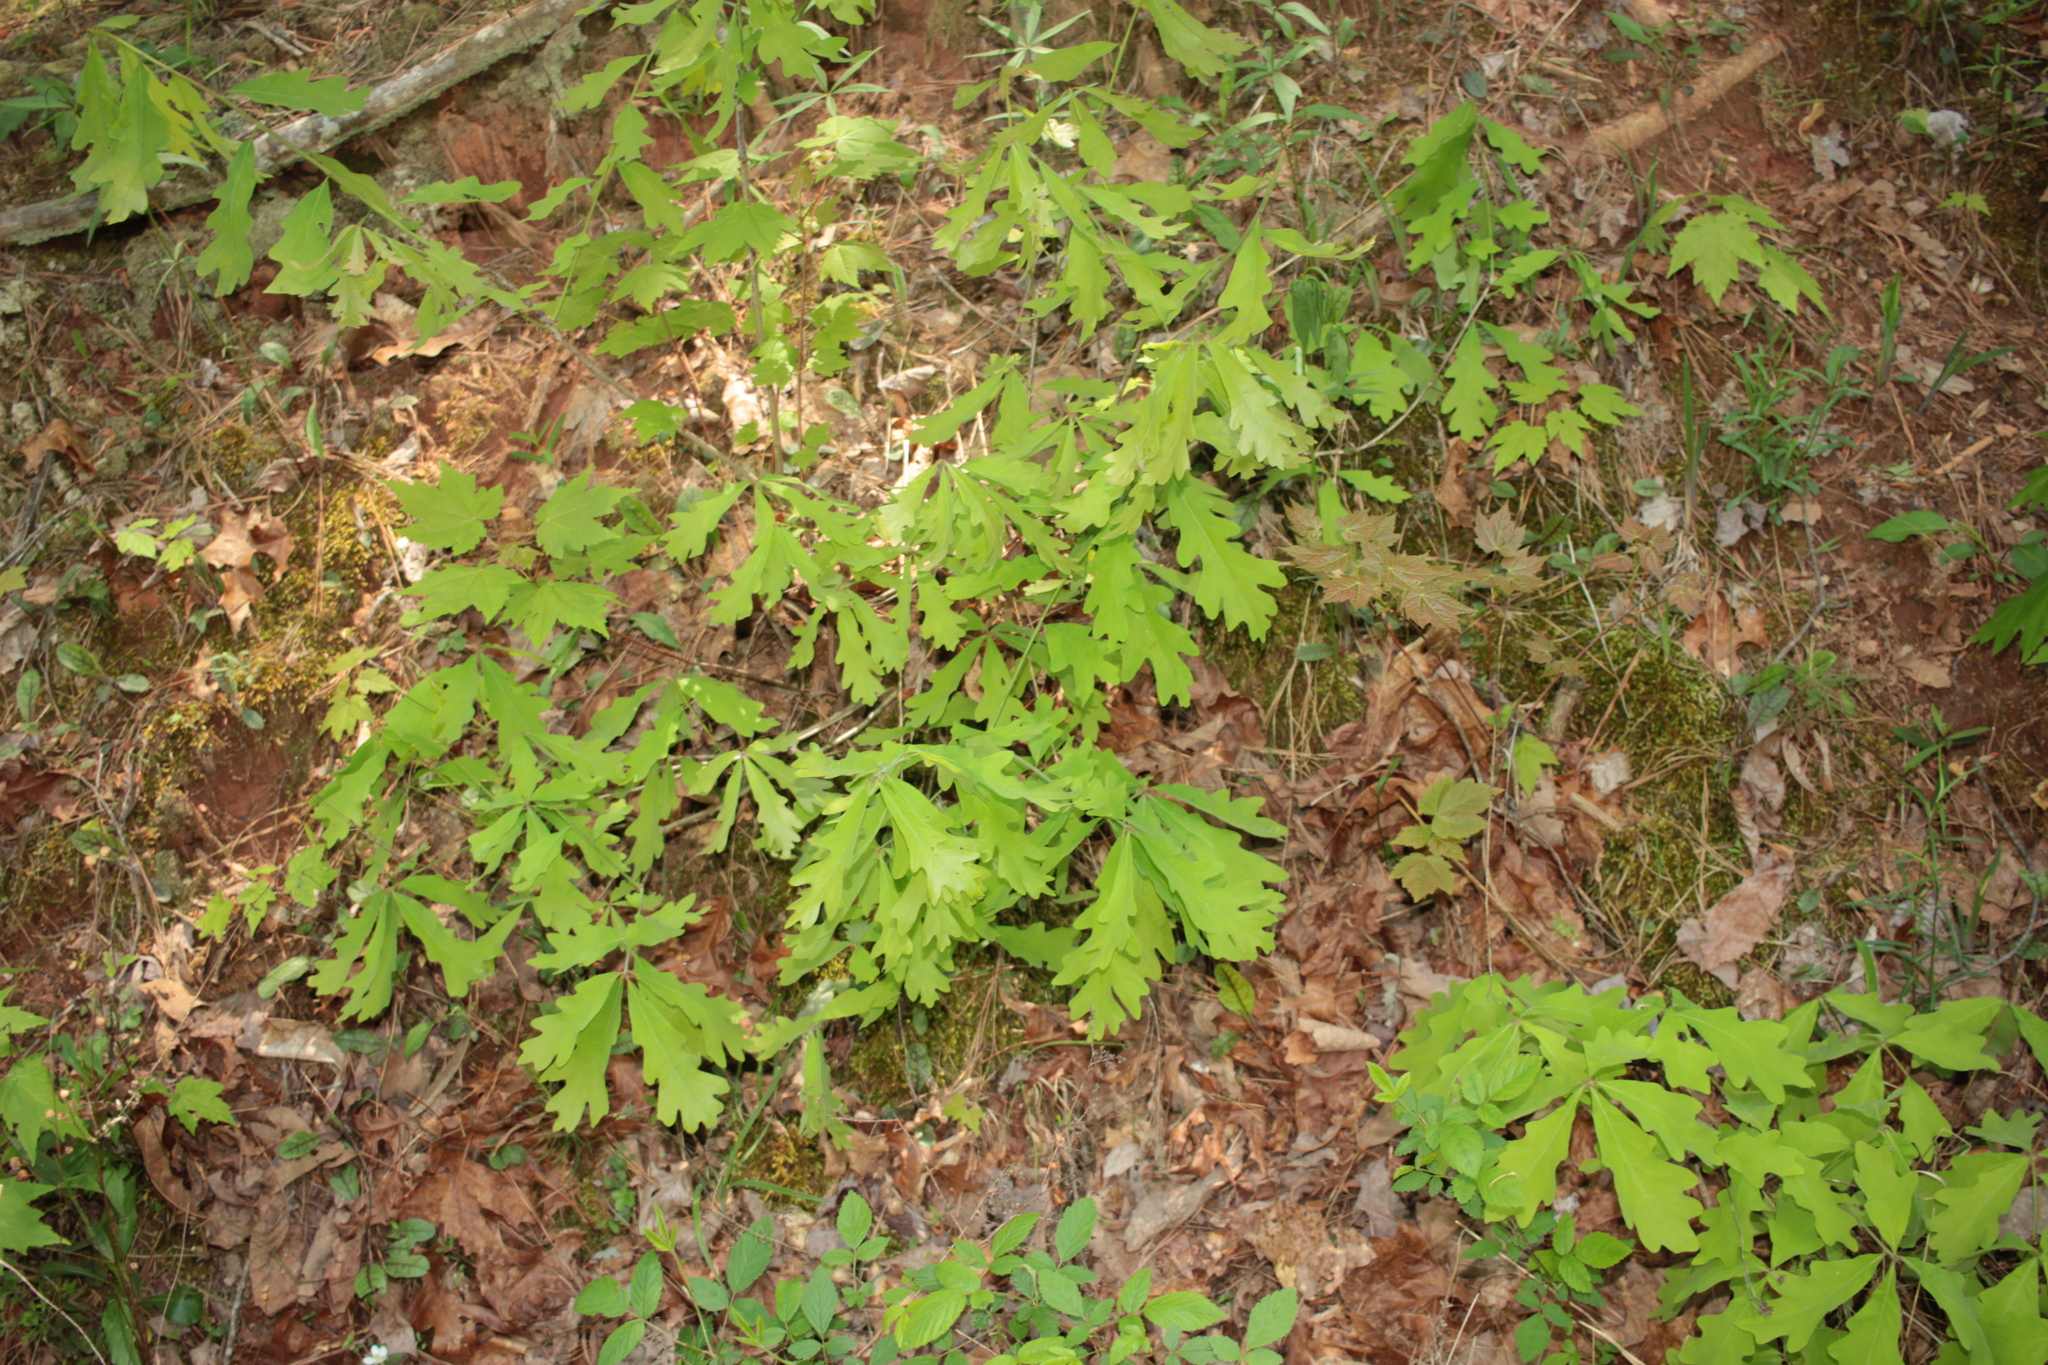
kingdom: Plantae
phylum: Tracheophyta
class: Magnoliopsida
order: Fagales
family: Fagaceae
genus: Quercus
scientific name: Quercus alba
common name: White oak
